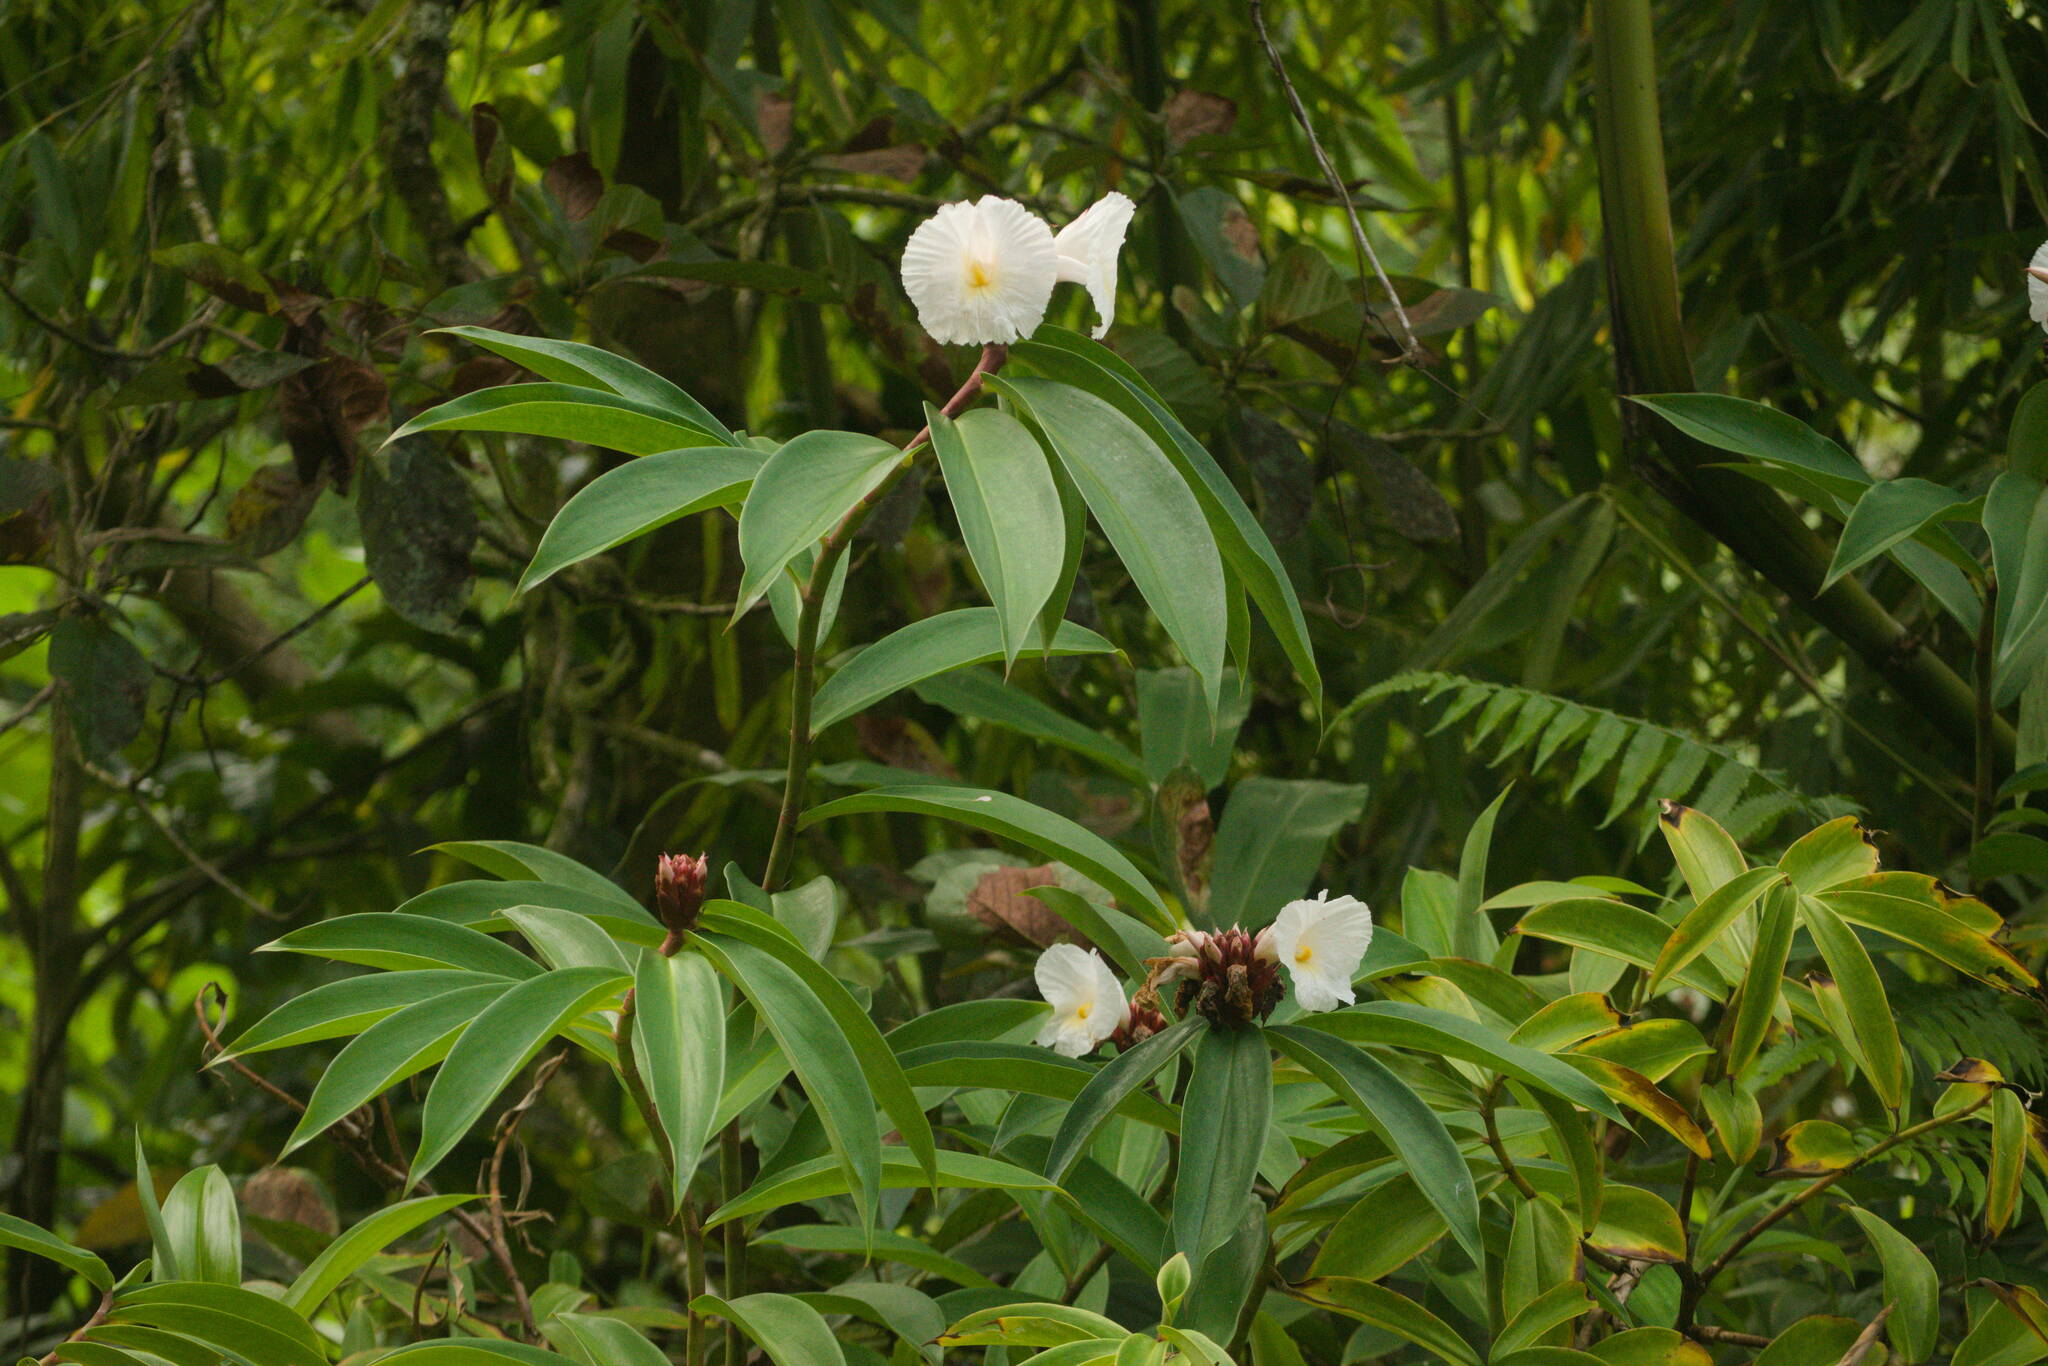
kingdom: Plantae
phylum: Tracheophyta
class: Liliopsida
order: Zingiberales
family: Costaceae
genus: Hellenia
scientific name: Hellenia speciosa
